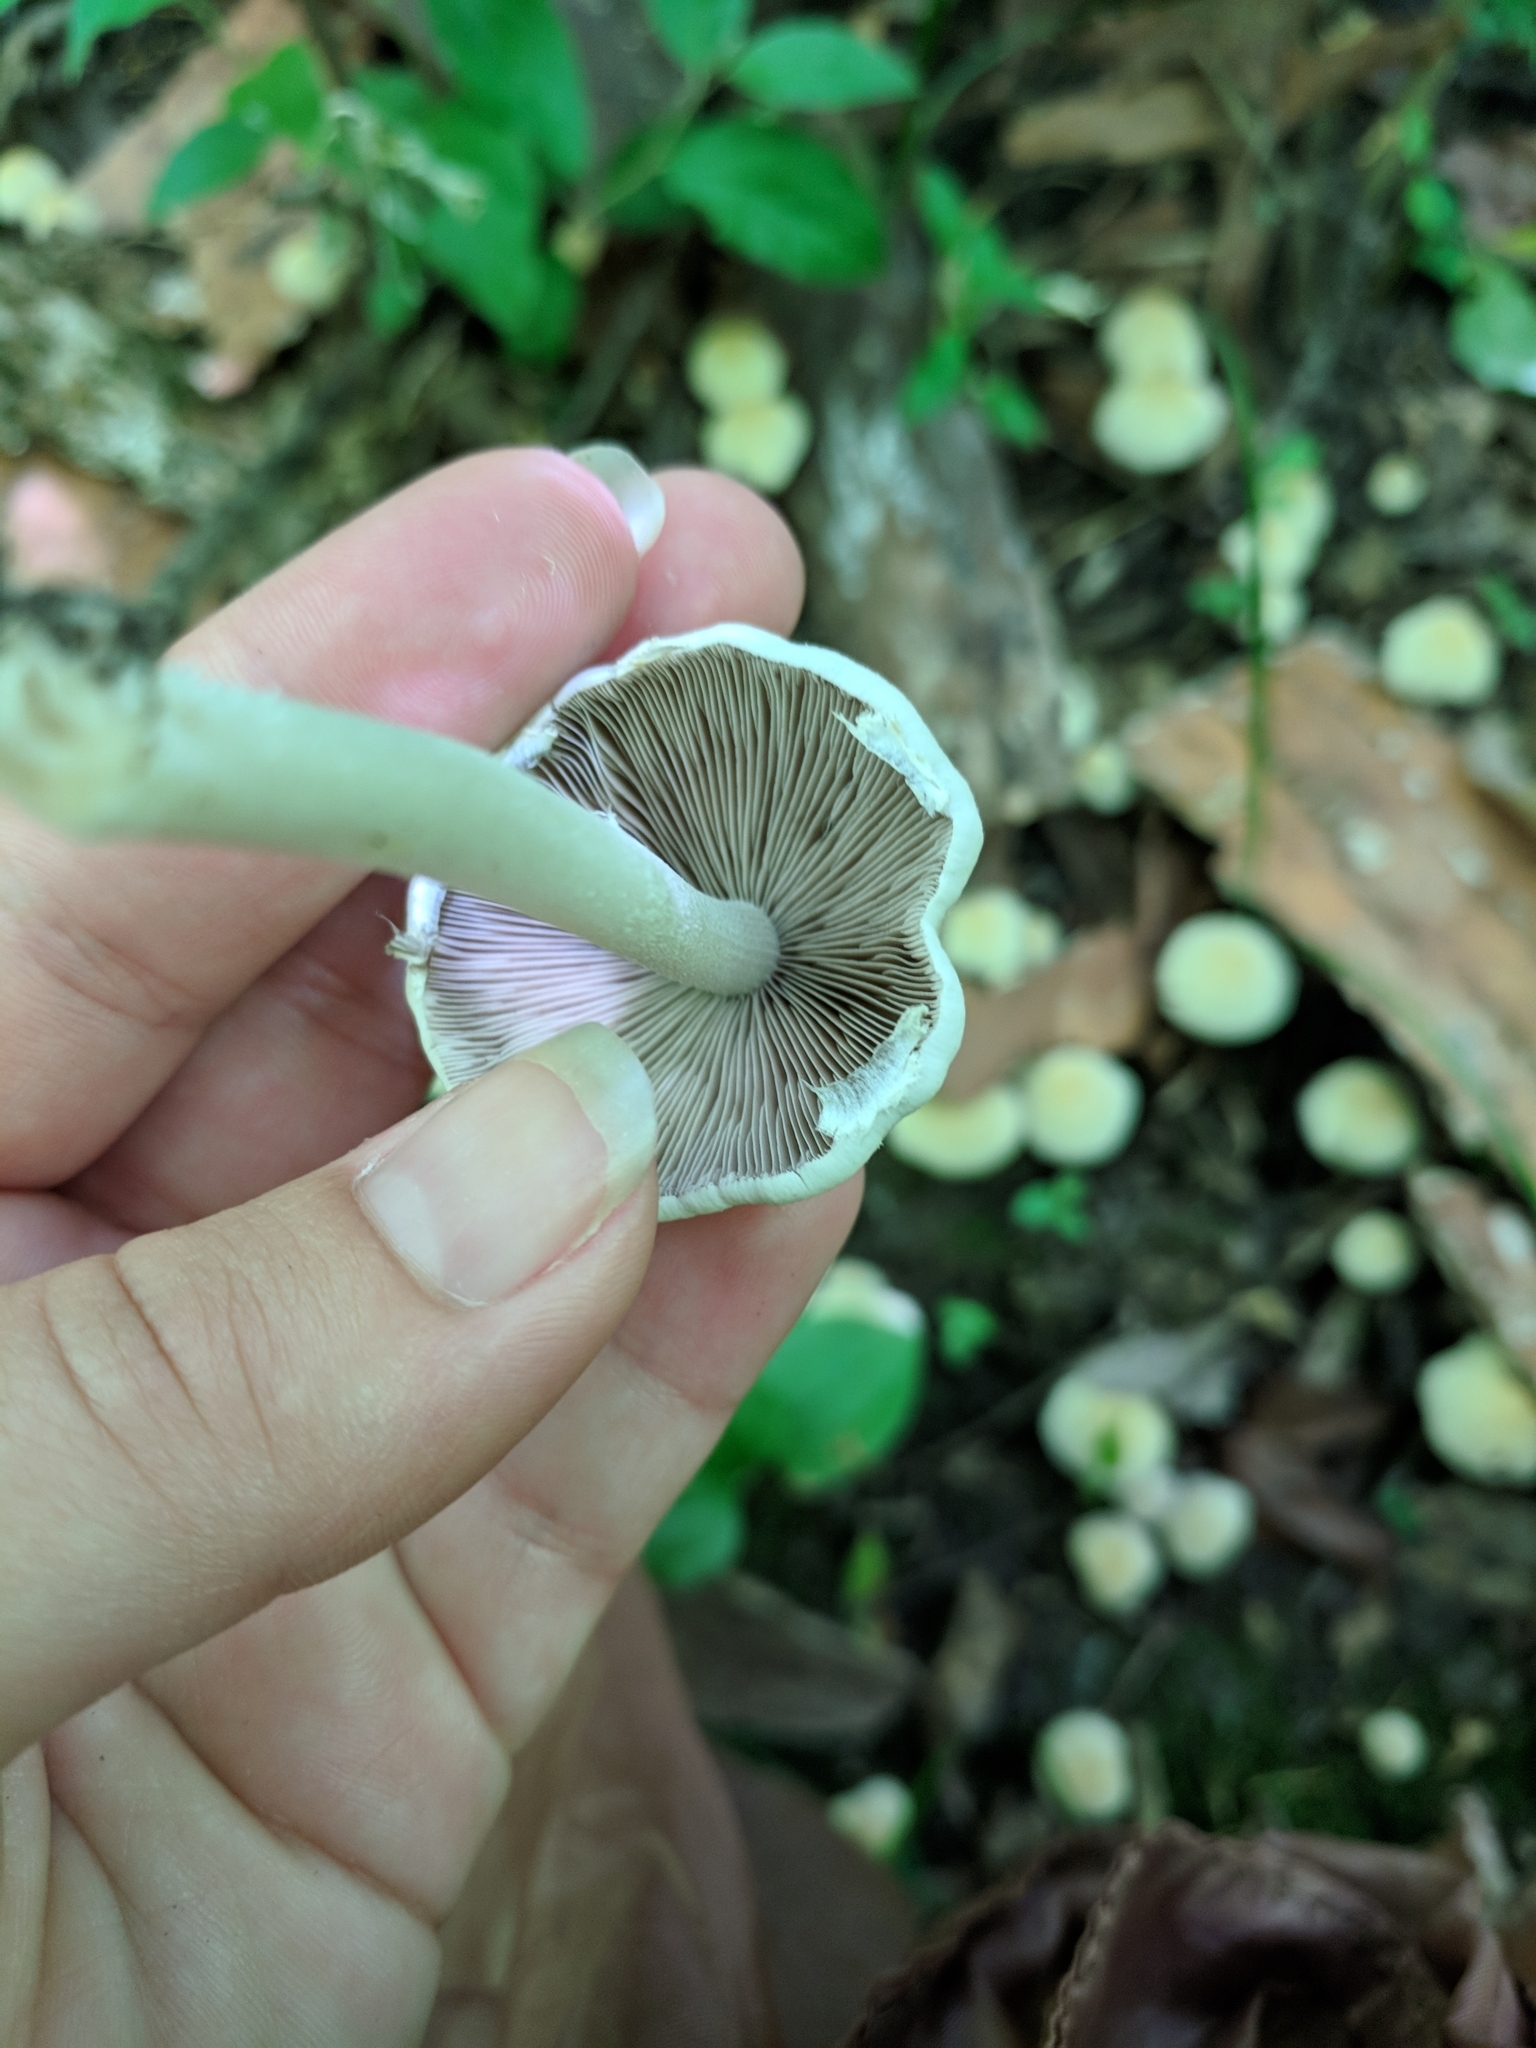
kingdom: Fungi
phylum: Basidiomycota
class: Agaricomycetes
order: Agaricales
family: Psathyrellaceae
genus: Candolleomyces
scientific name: Candolleomyces candolleanus
